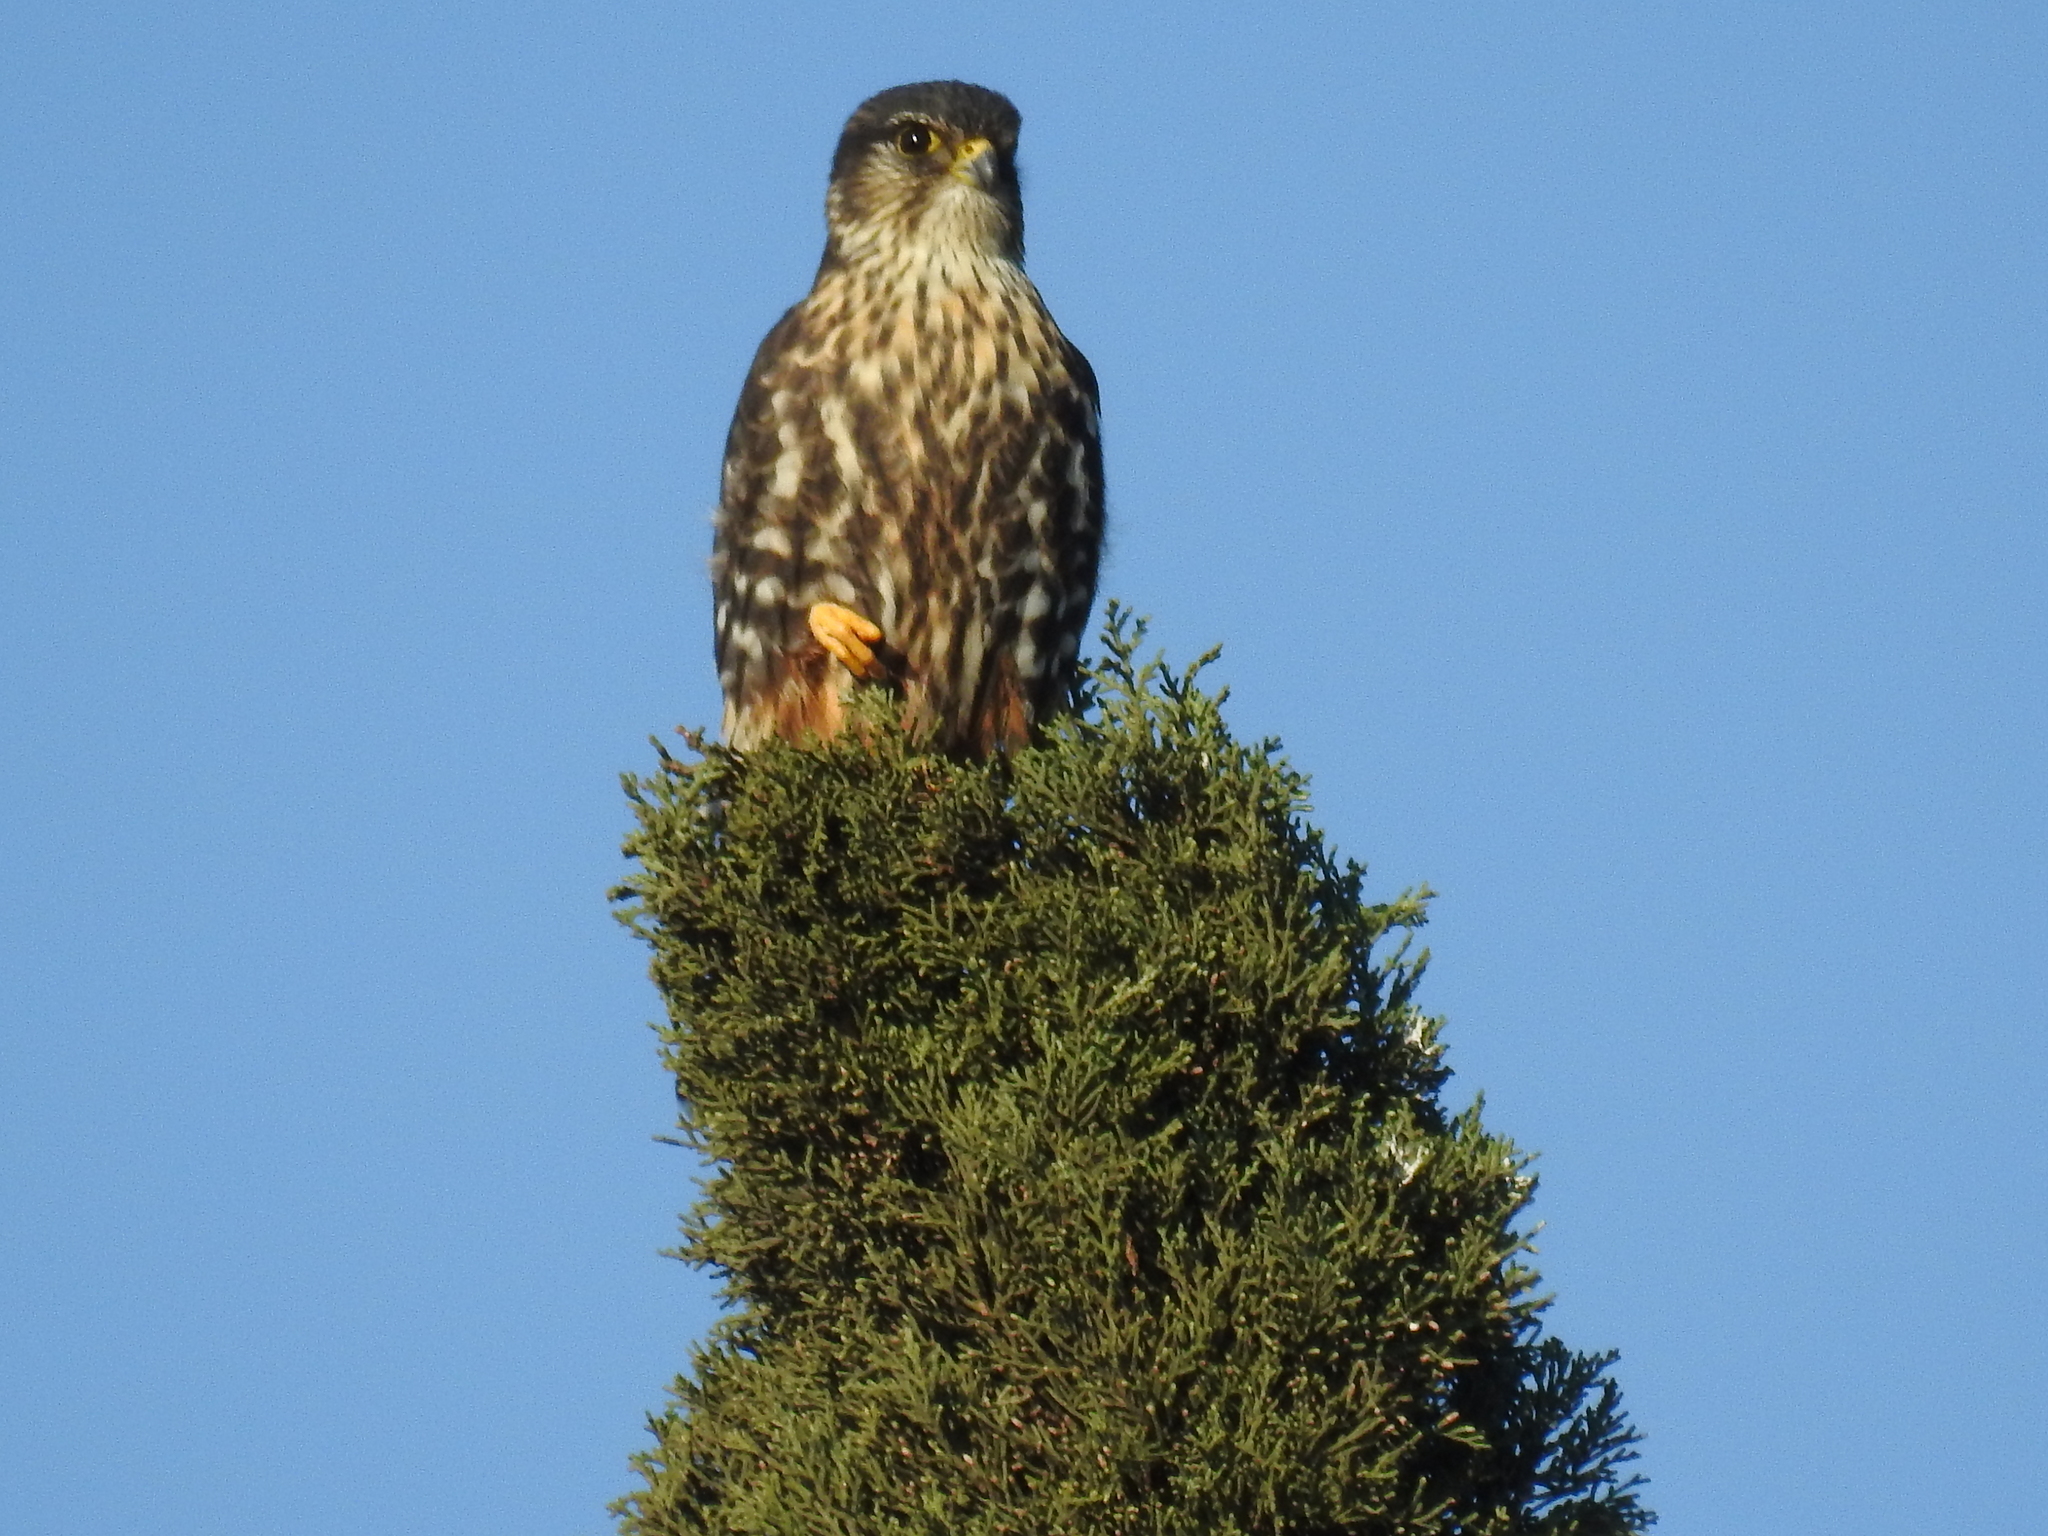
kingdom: Animalia
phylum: Chordata
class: Aves
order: Falconiformes
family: Falconidae
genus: Falco
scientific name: Falco columbarius
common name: Merlin
